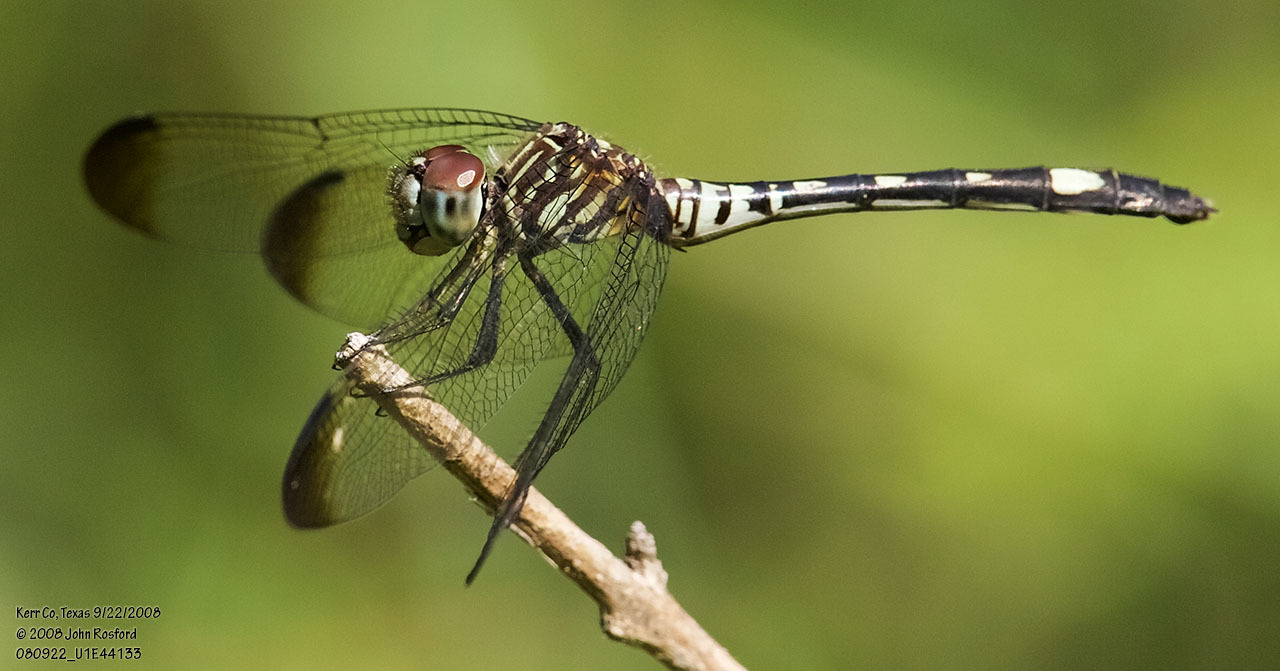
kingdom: Animalia
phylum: Arthropoda
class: Insecta
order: Odonata
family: Libellulidae
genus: Dythemis
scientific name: Dythemis velox
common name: Swift setwing
